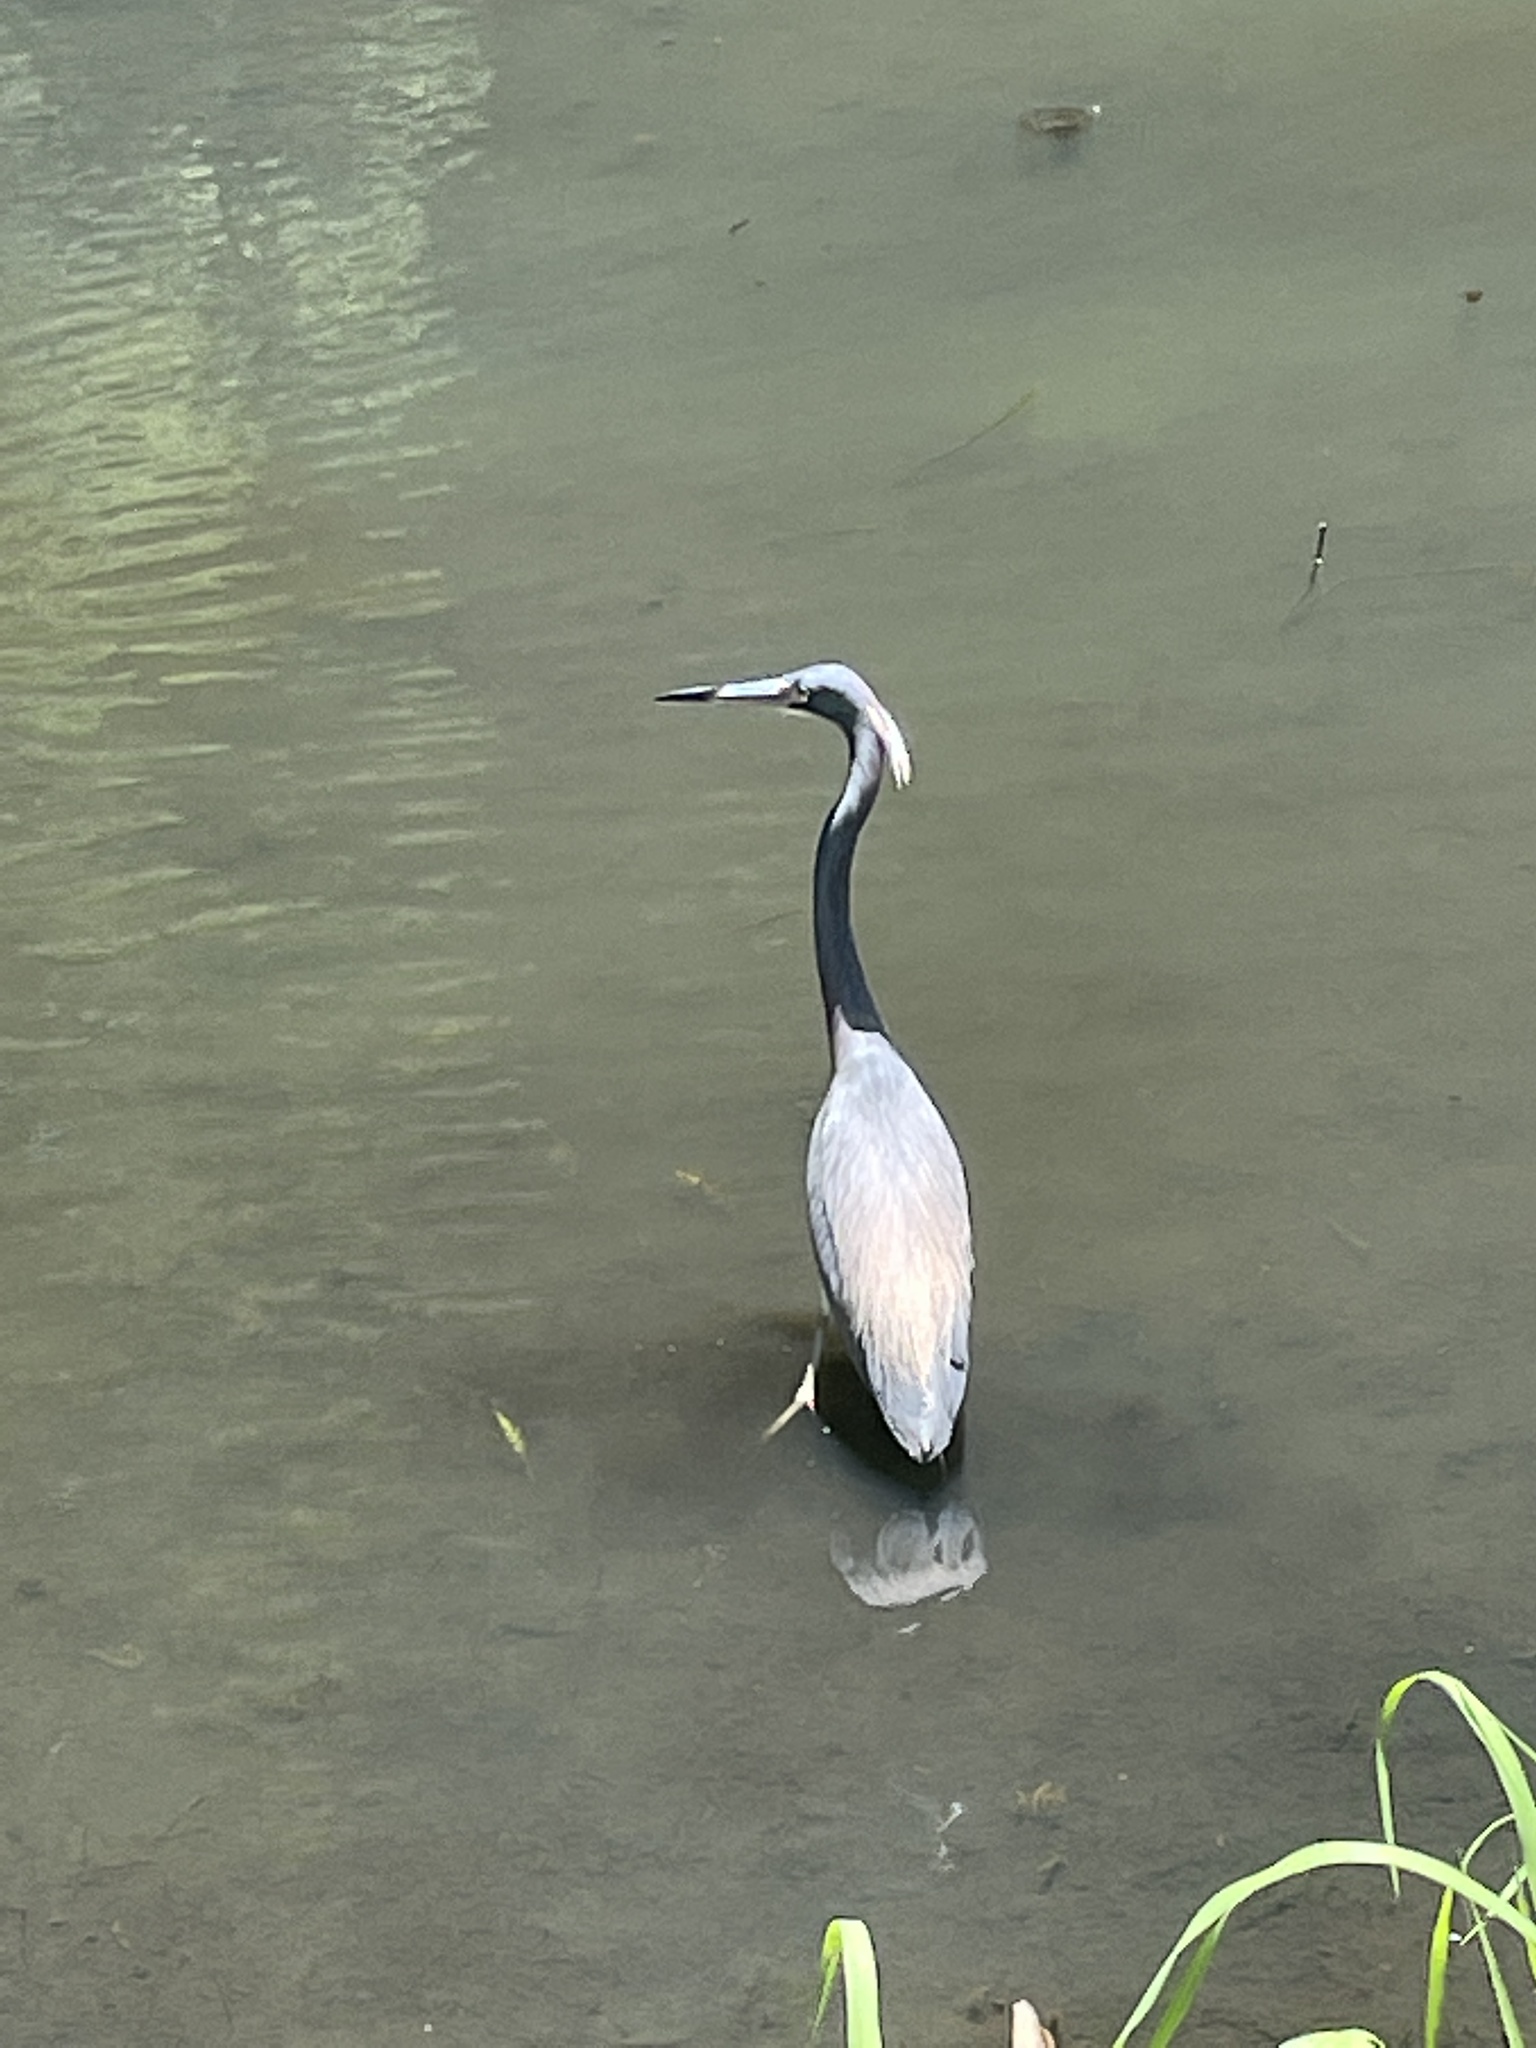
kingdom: Animalia
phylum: Chordata
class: Aves
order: Pelecaniformes
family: Ardeidae
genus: Egretta
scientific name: Egretta tricolor
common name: Tricolored heron
